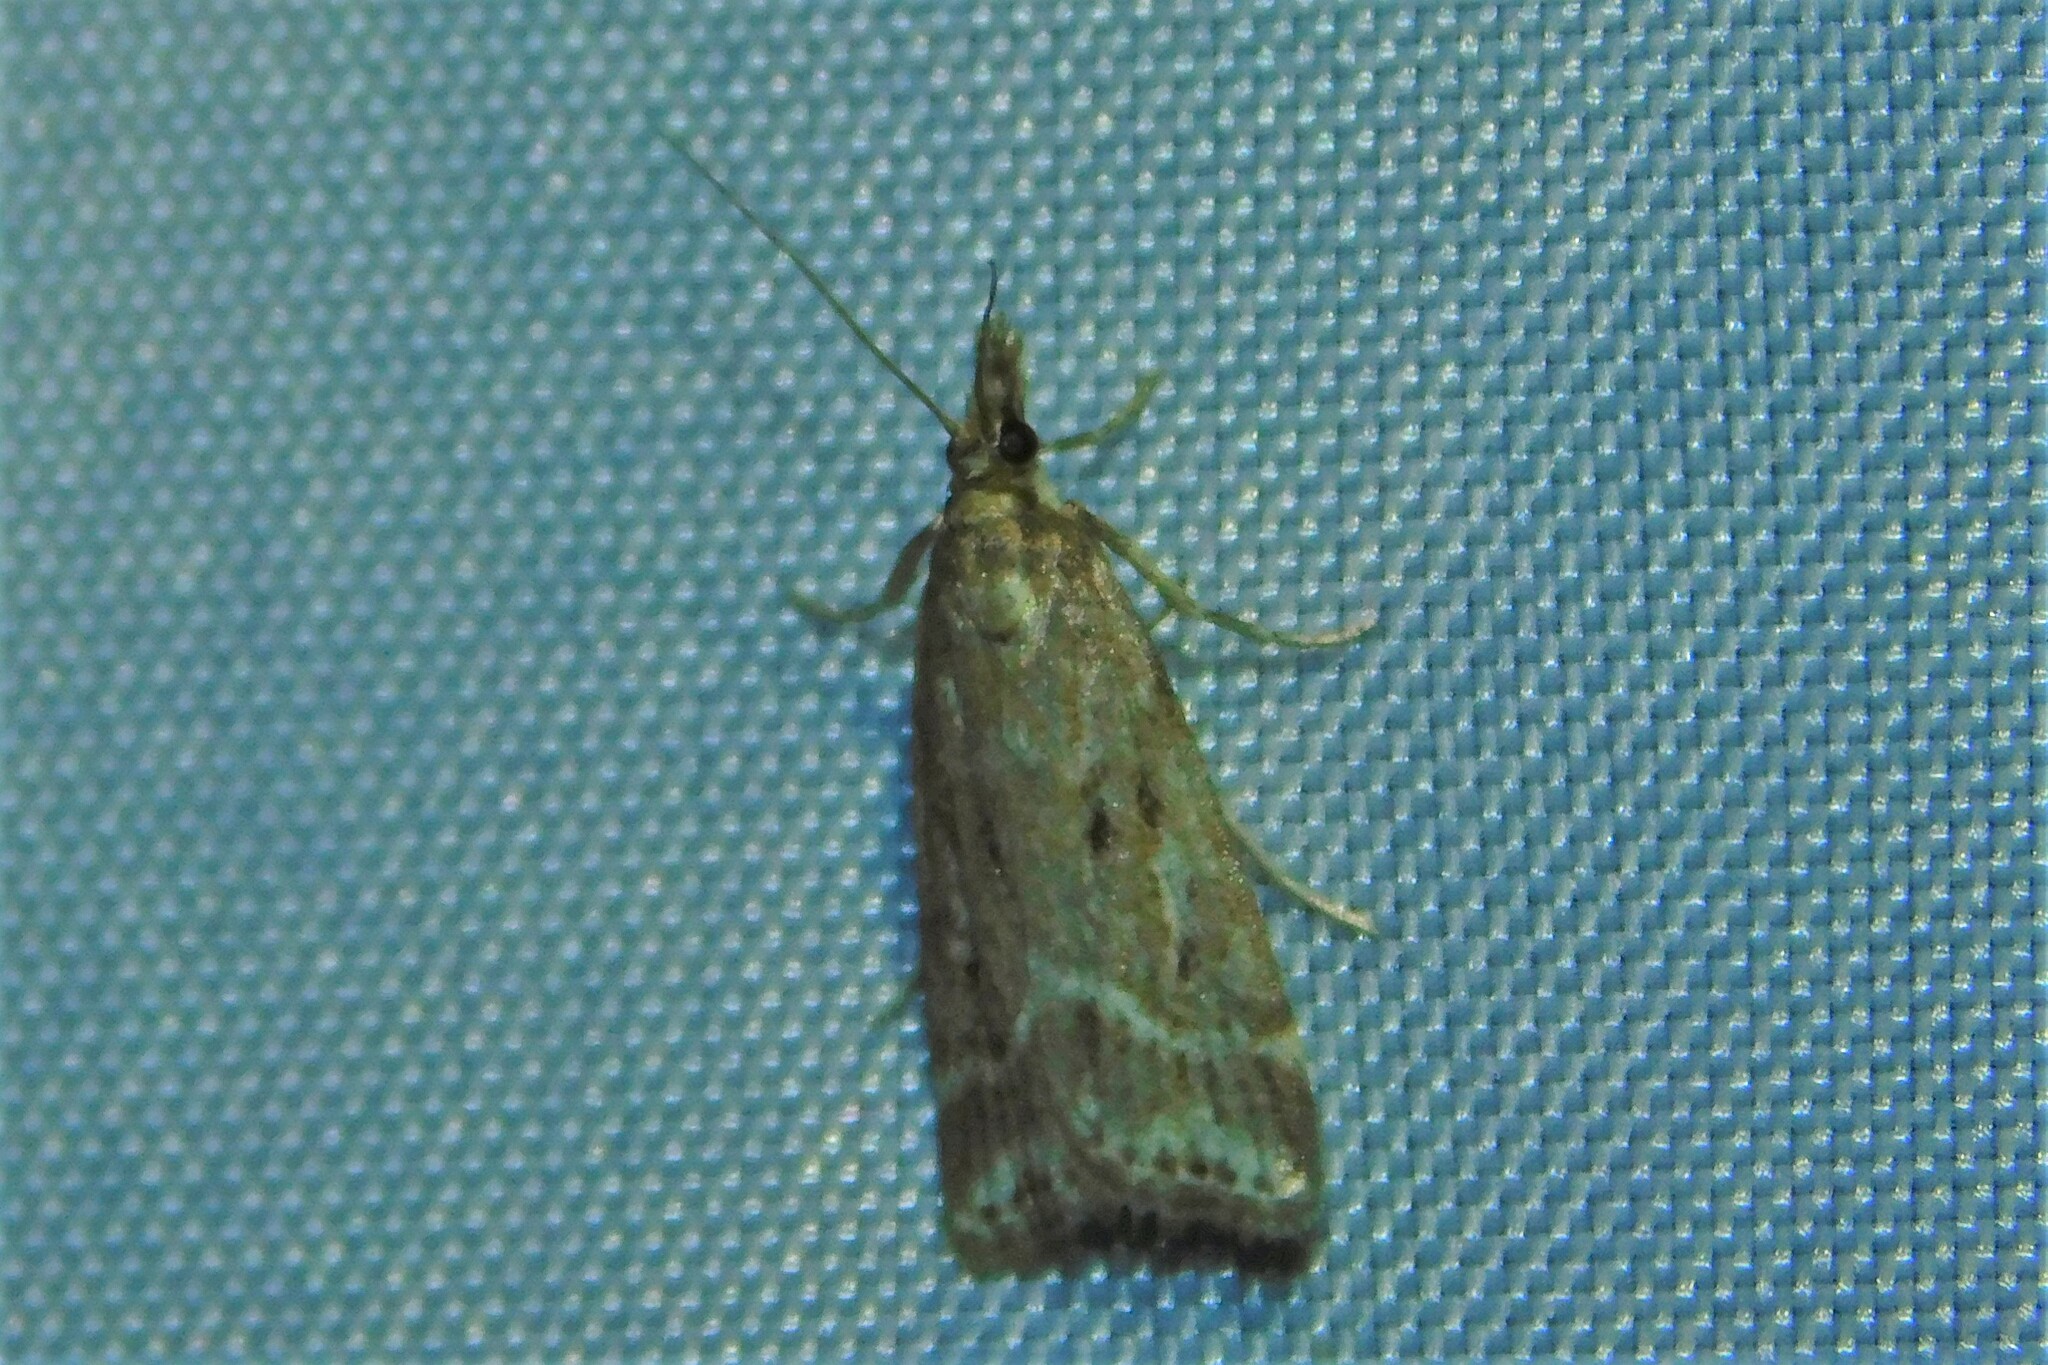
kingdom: Animalia
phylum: Arthropoda
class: Insecta
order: Lepidoptera
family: Crambidae
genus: Eudonia
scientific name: Eudonia truncicolella
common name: Ground-moss grey
